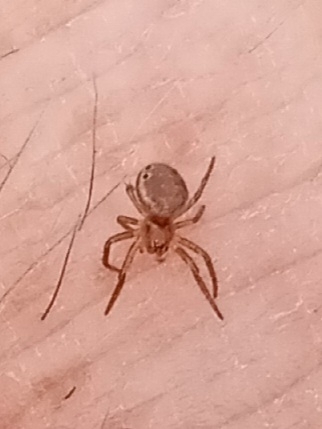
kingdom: Animalia
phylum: Arthropoda
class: Arachnida
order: Araneae
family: Araneidae
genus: Araniella
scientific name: Araniella displicata
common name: Sixspotted orb weaver
